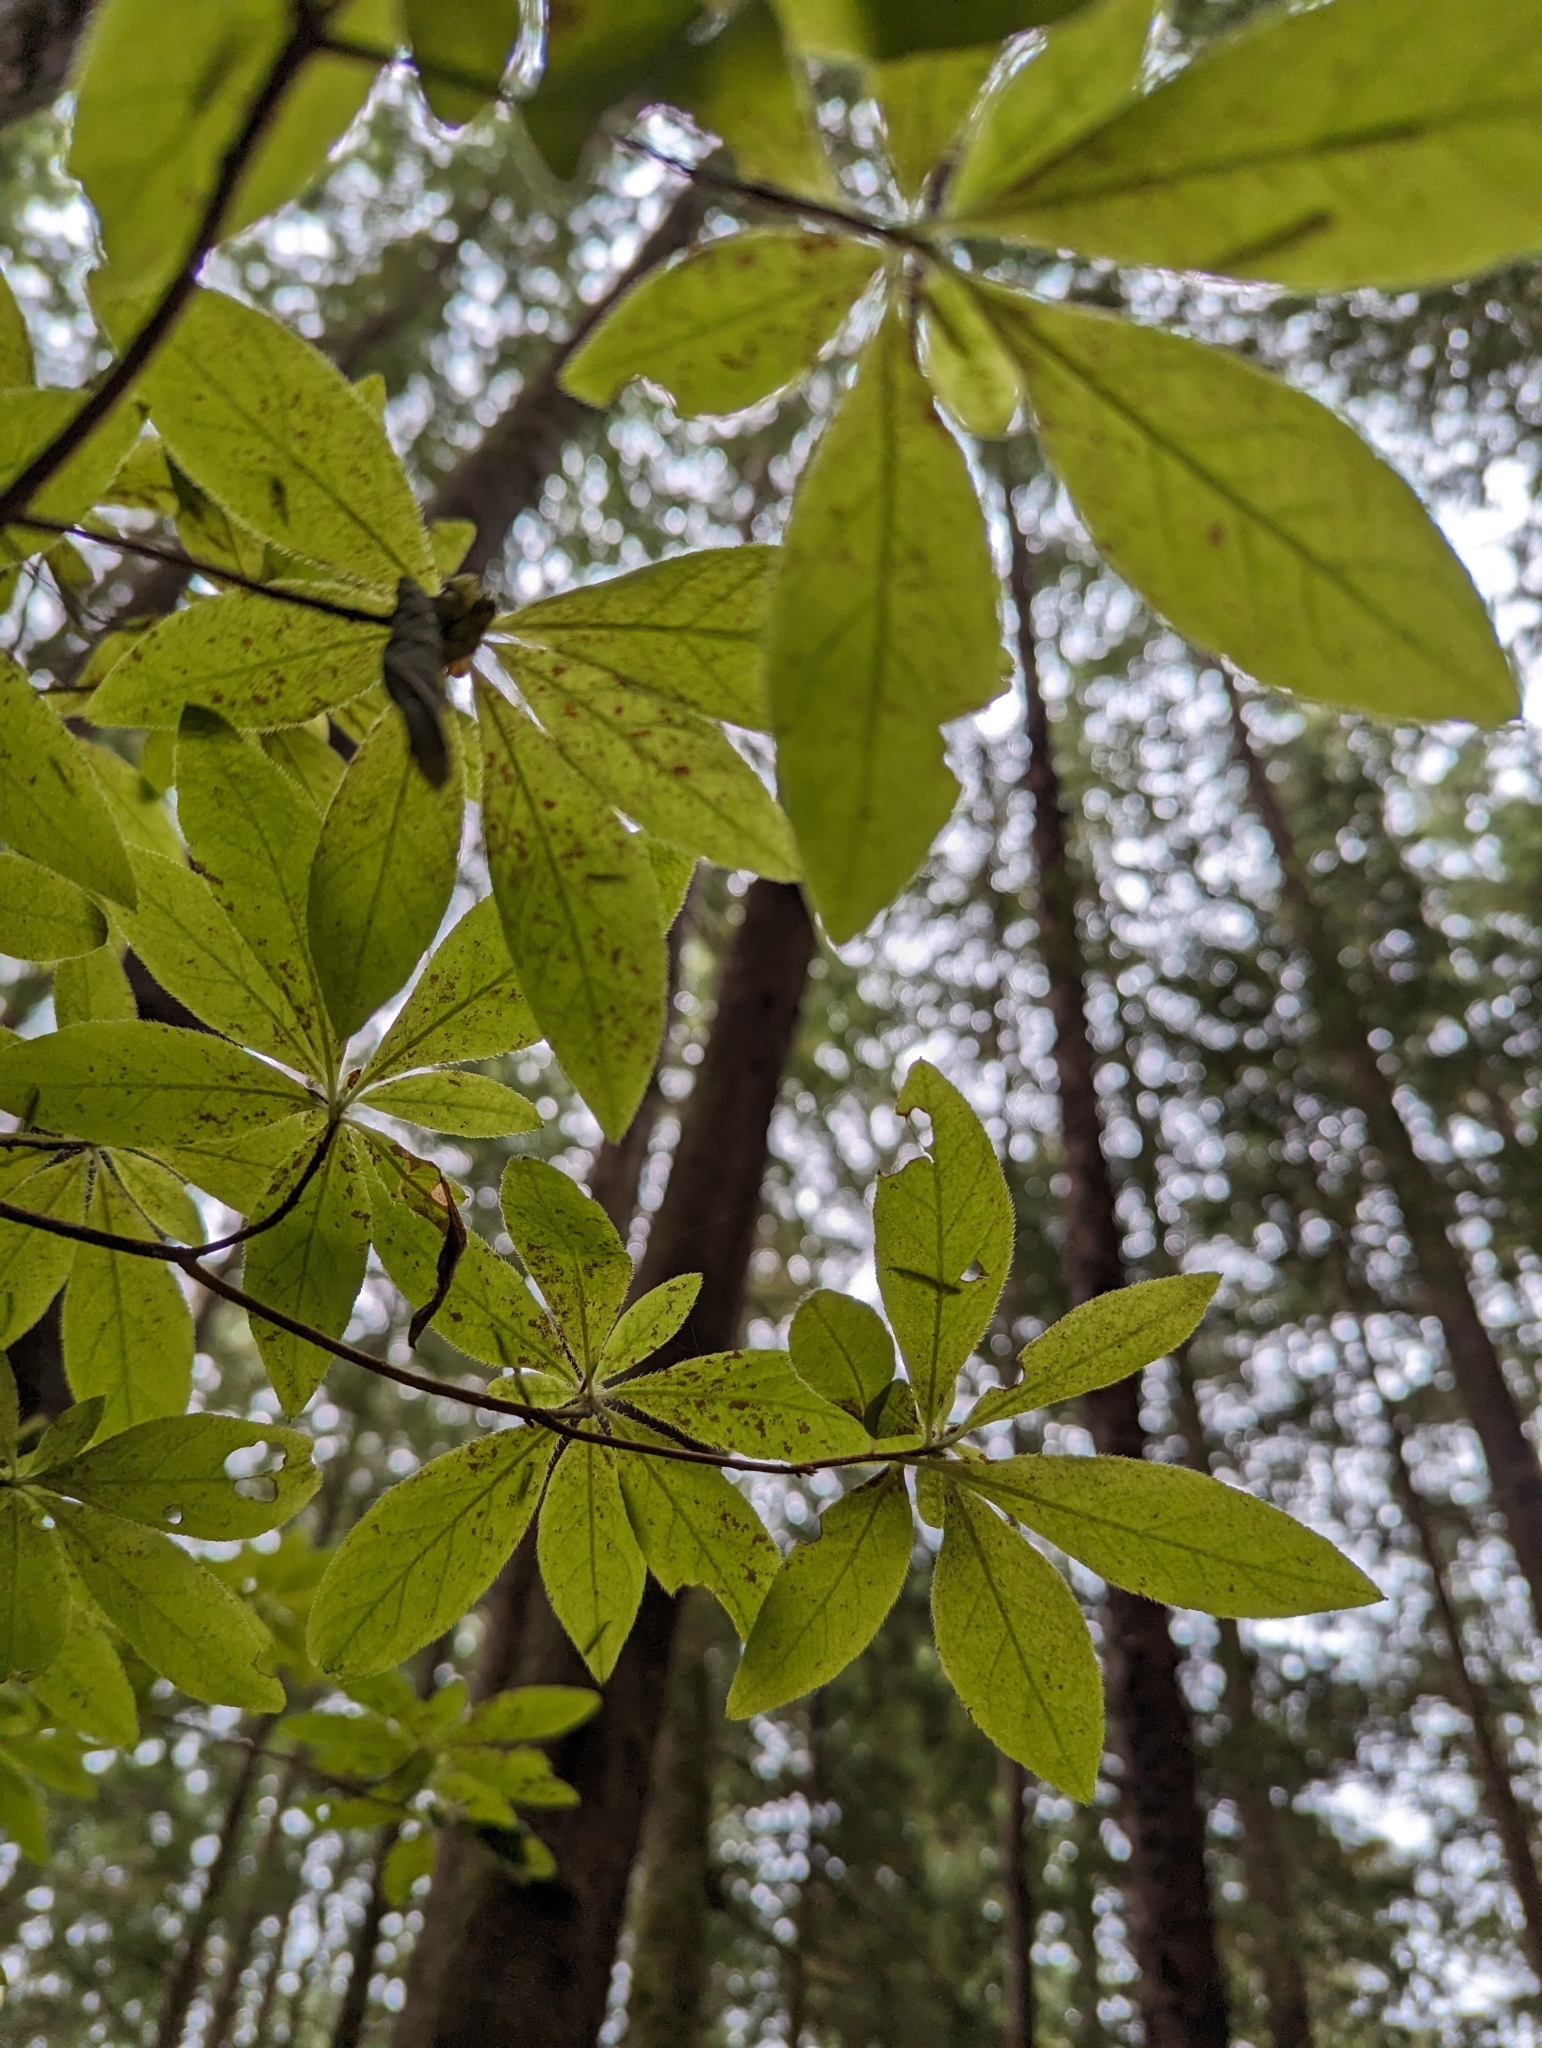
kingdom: Plantae
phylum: Tracheophyta
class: Magnoliopsida
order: Ericales
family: Ericaceae
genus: Rhododendron
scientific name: Rhododendron menziesii
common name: Pacific menziesia
